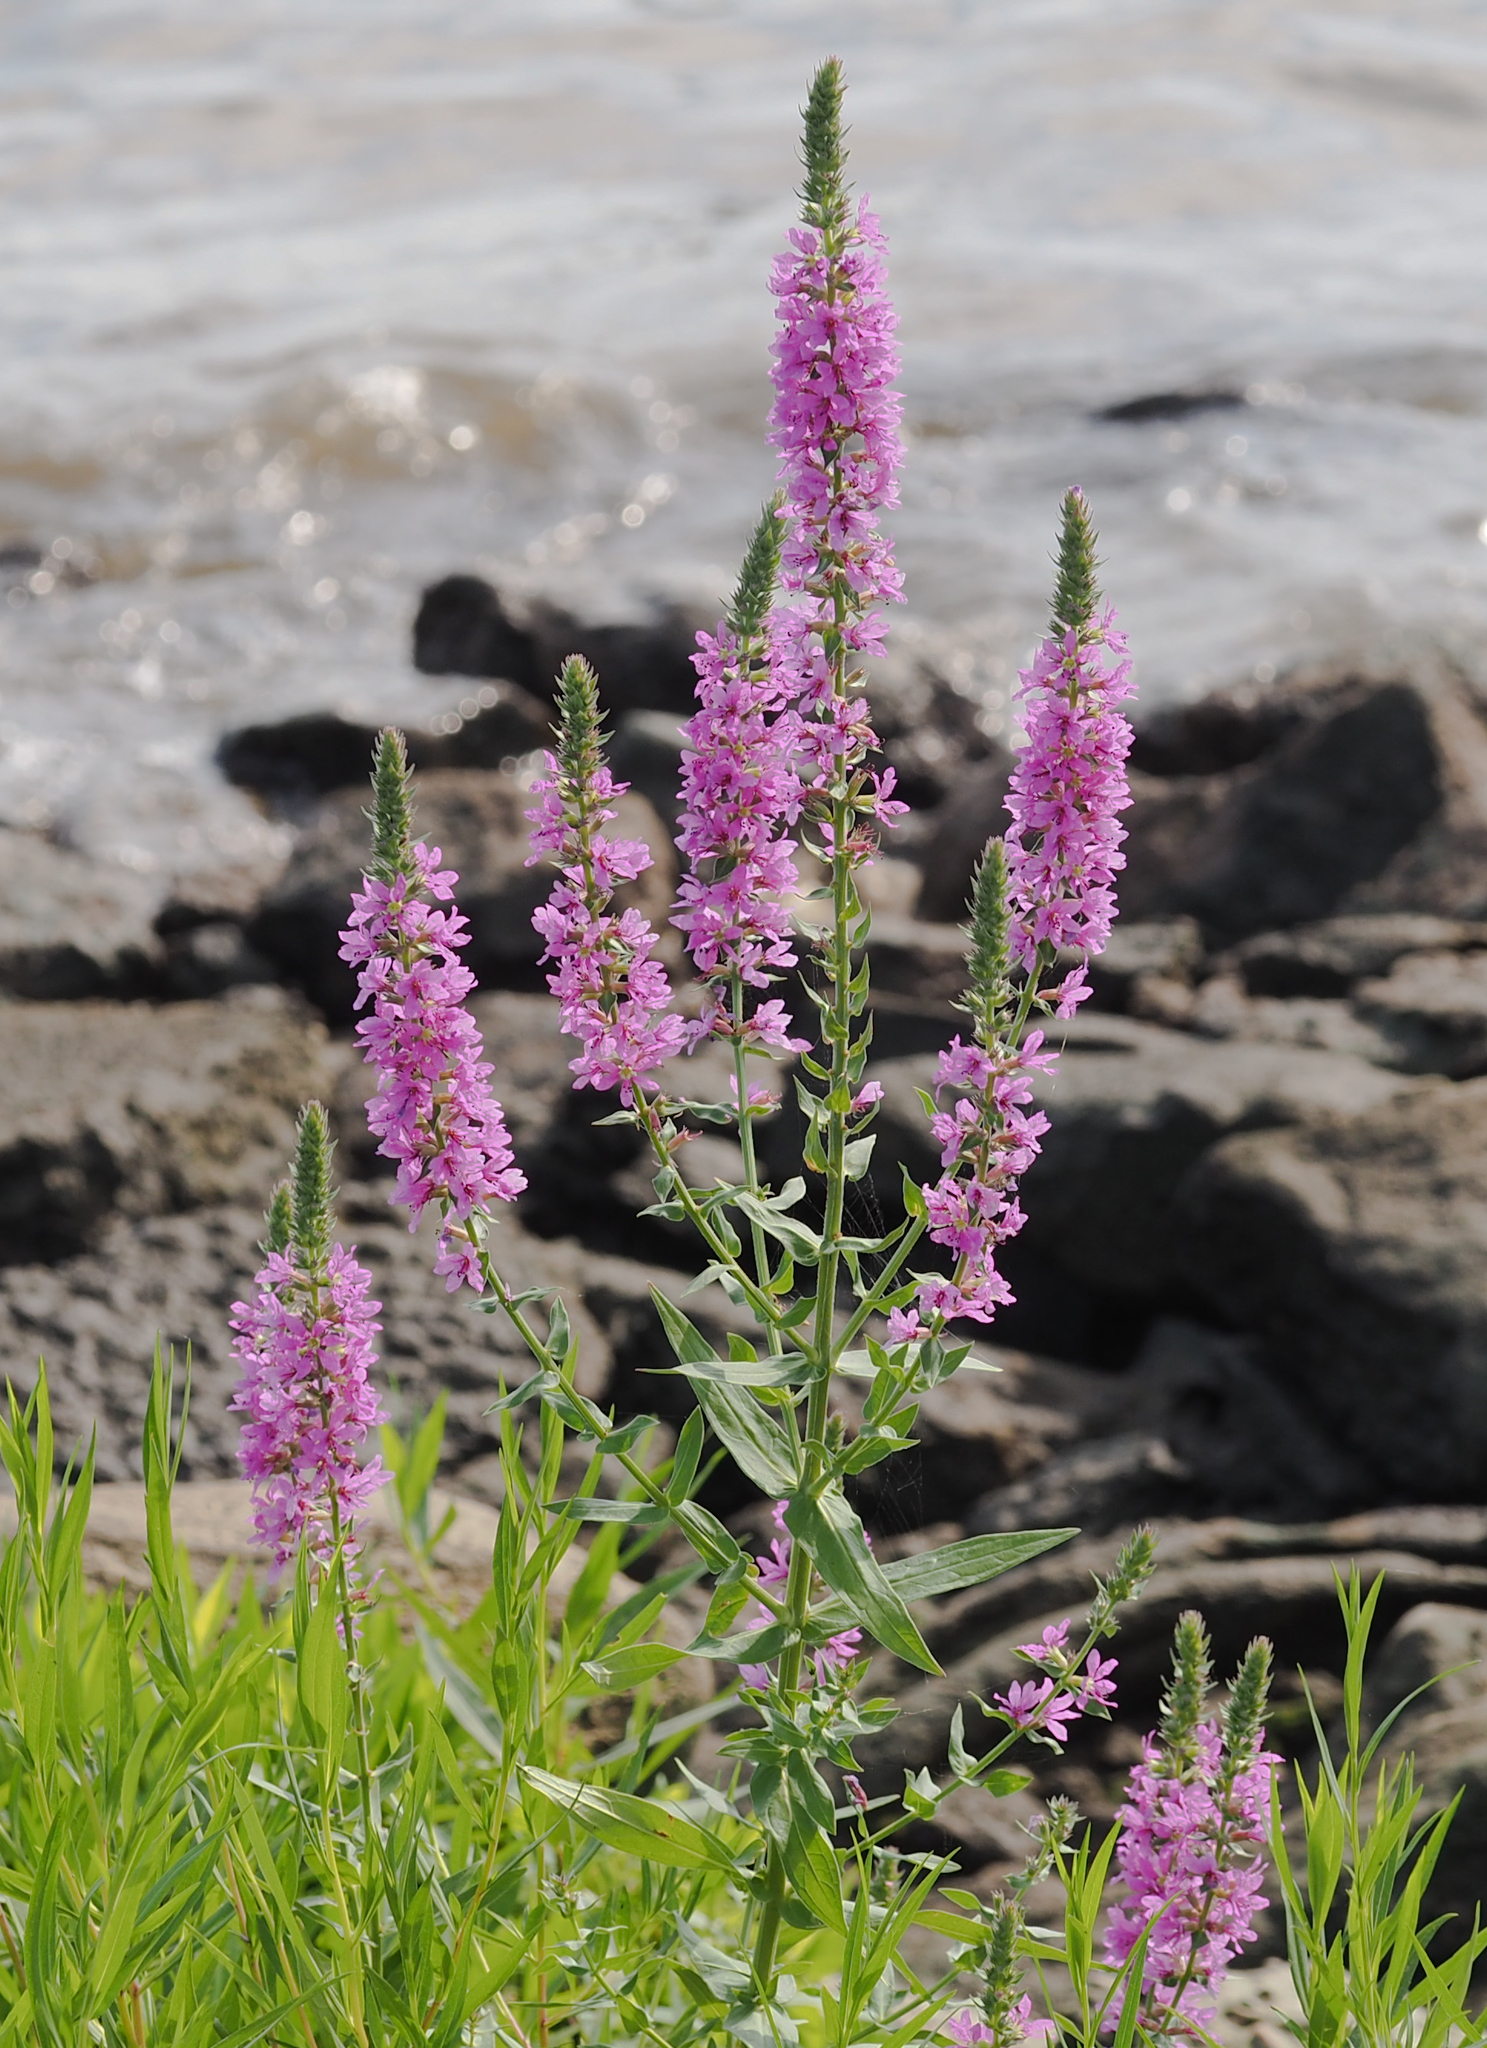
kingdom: Plantae
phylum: Tracheophyta
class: Magnoliopsida
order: Myrtales
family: Lythraceae
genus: Lythrum
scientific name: Lythrum salicaria
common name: Purple loosestrife
